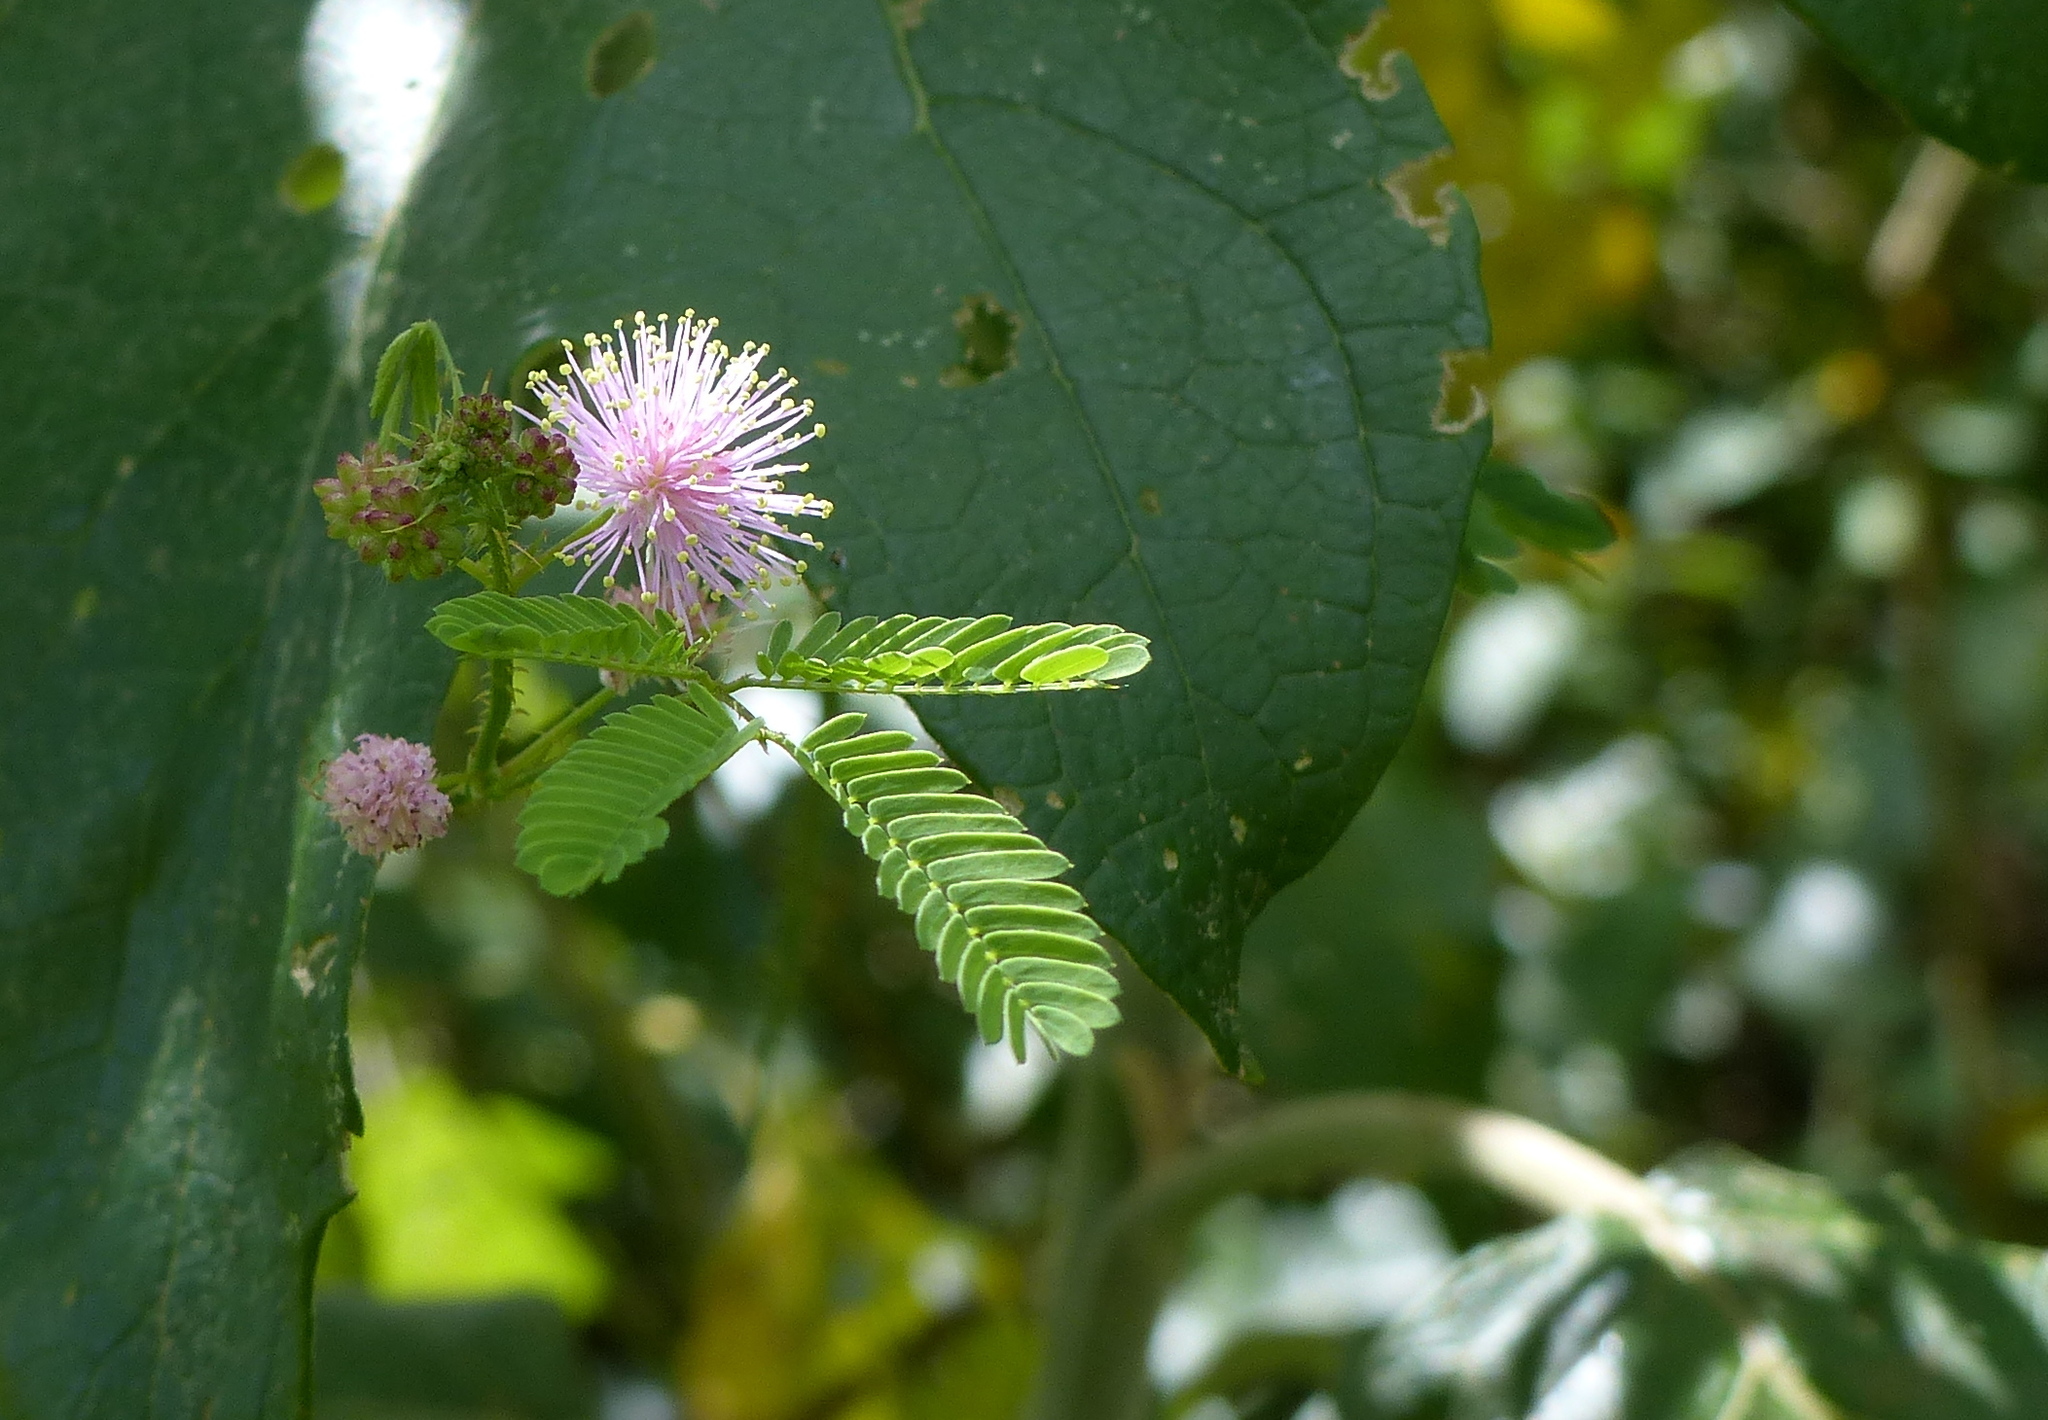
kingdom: Plantae
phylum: Tracheophyta
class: Magnoliopsida
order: Fabales
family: Fabaceae
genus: Mimosa
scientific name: Mimosa candollei
